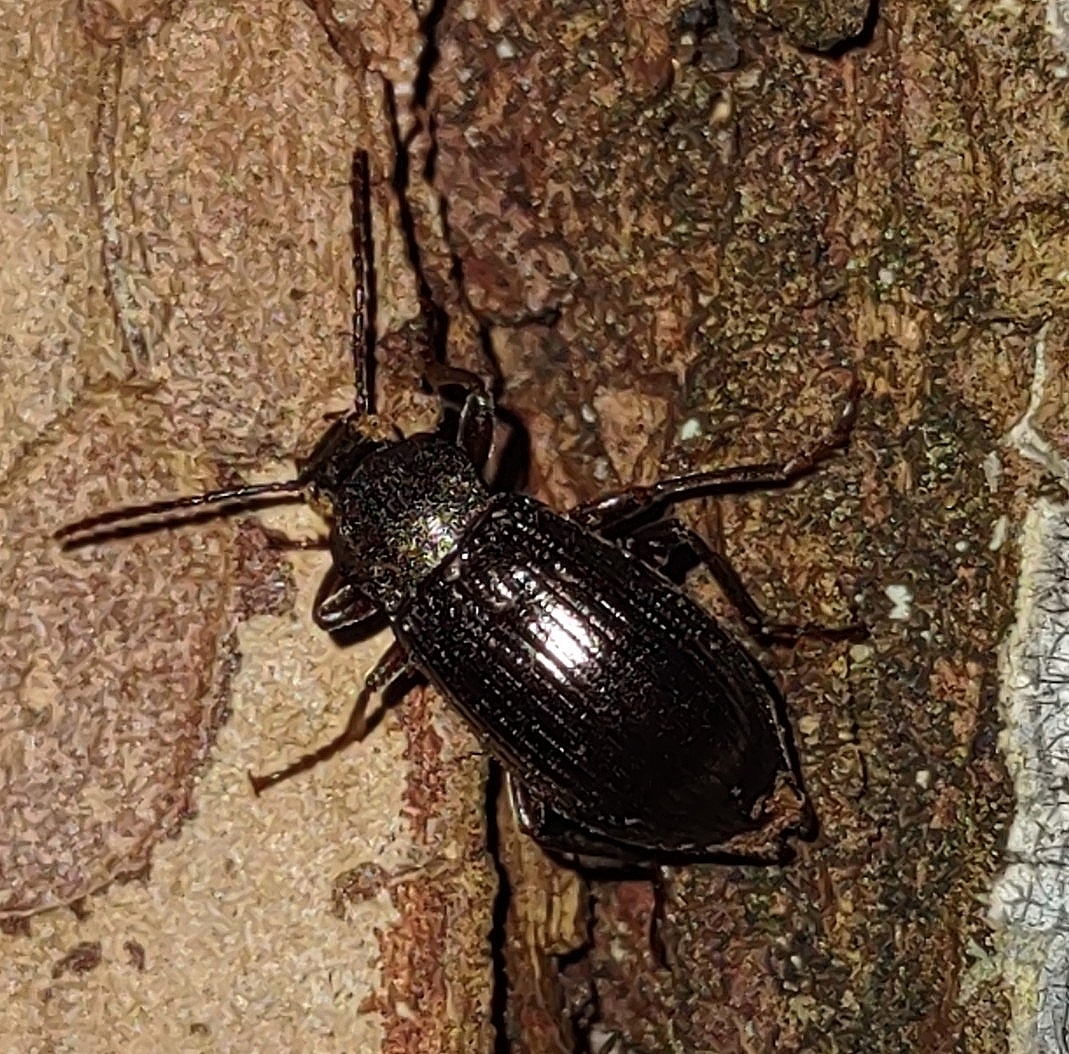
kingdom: Animalia
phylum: Arthropoda
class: Insecta
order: Coleoptera
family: Tenebrionidae
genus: Stenomax
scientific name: Stenomax aeneus
